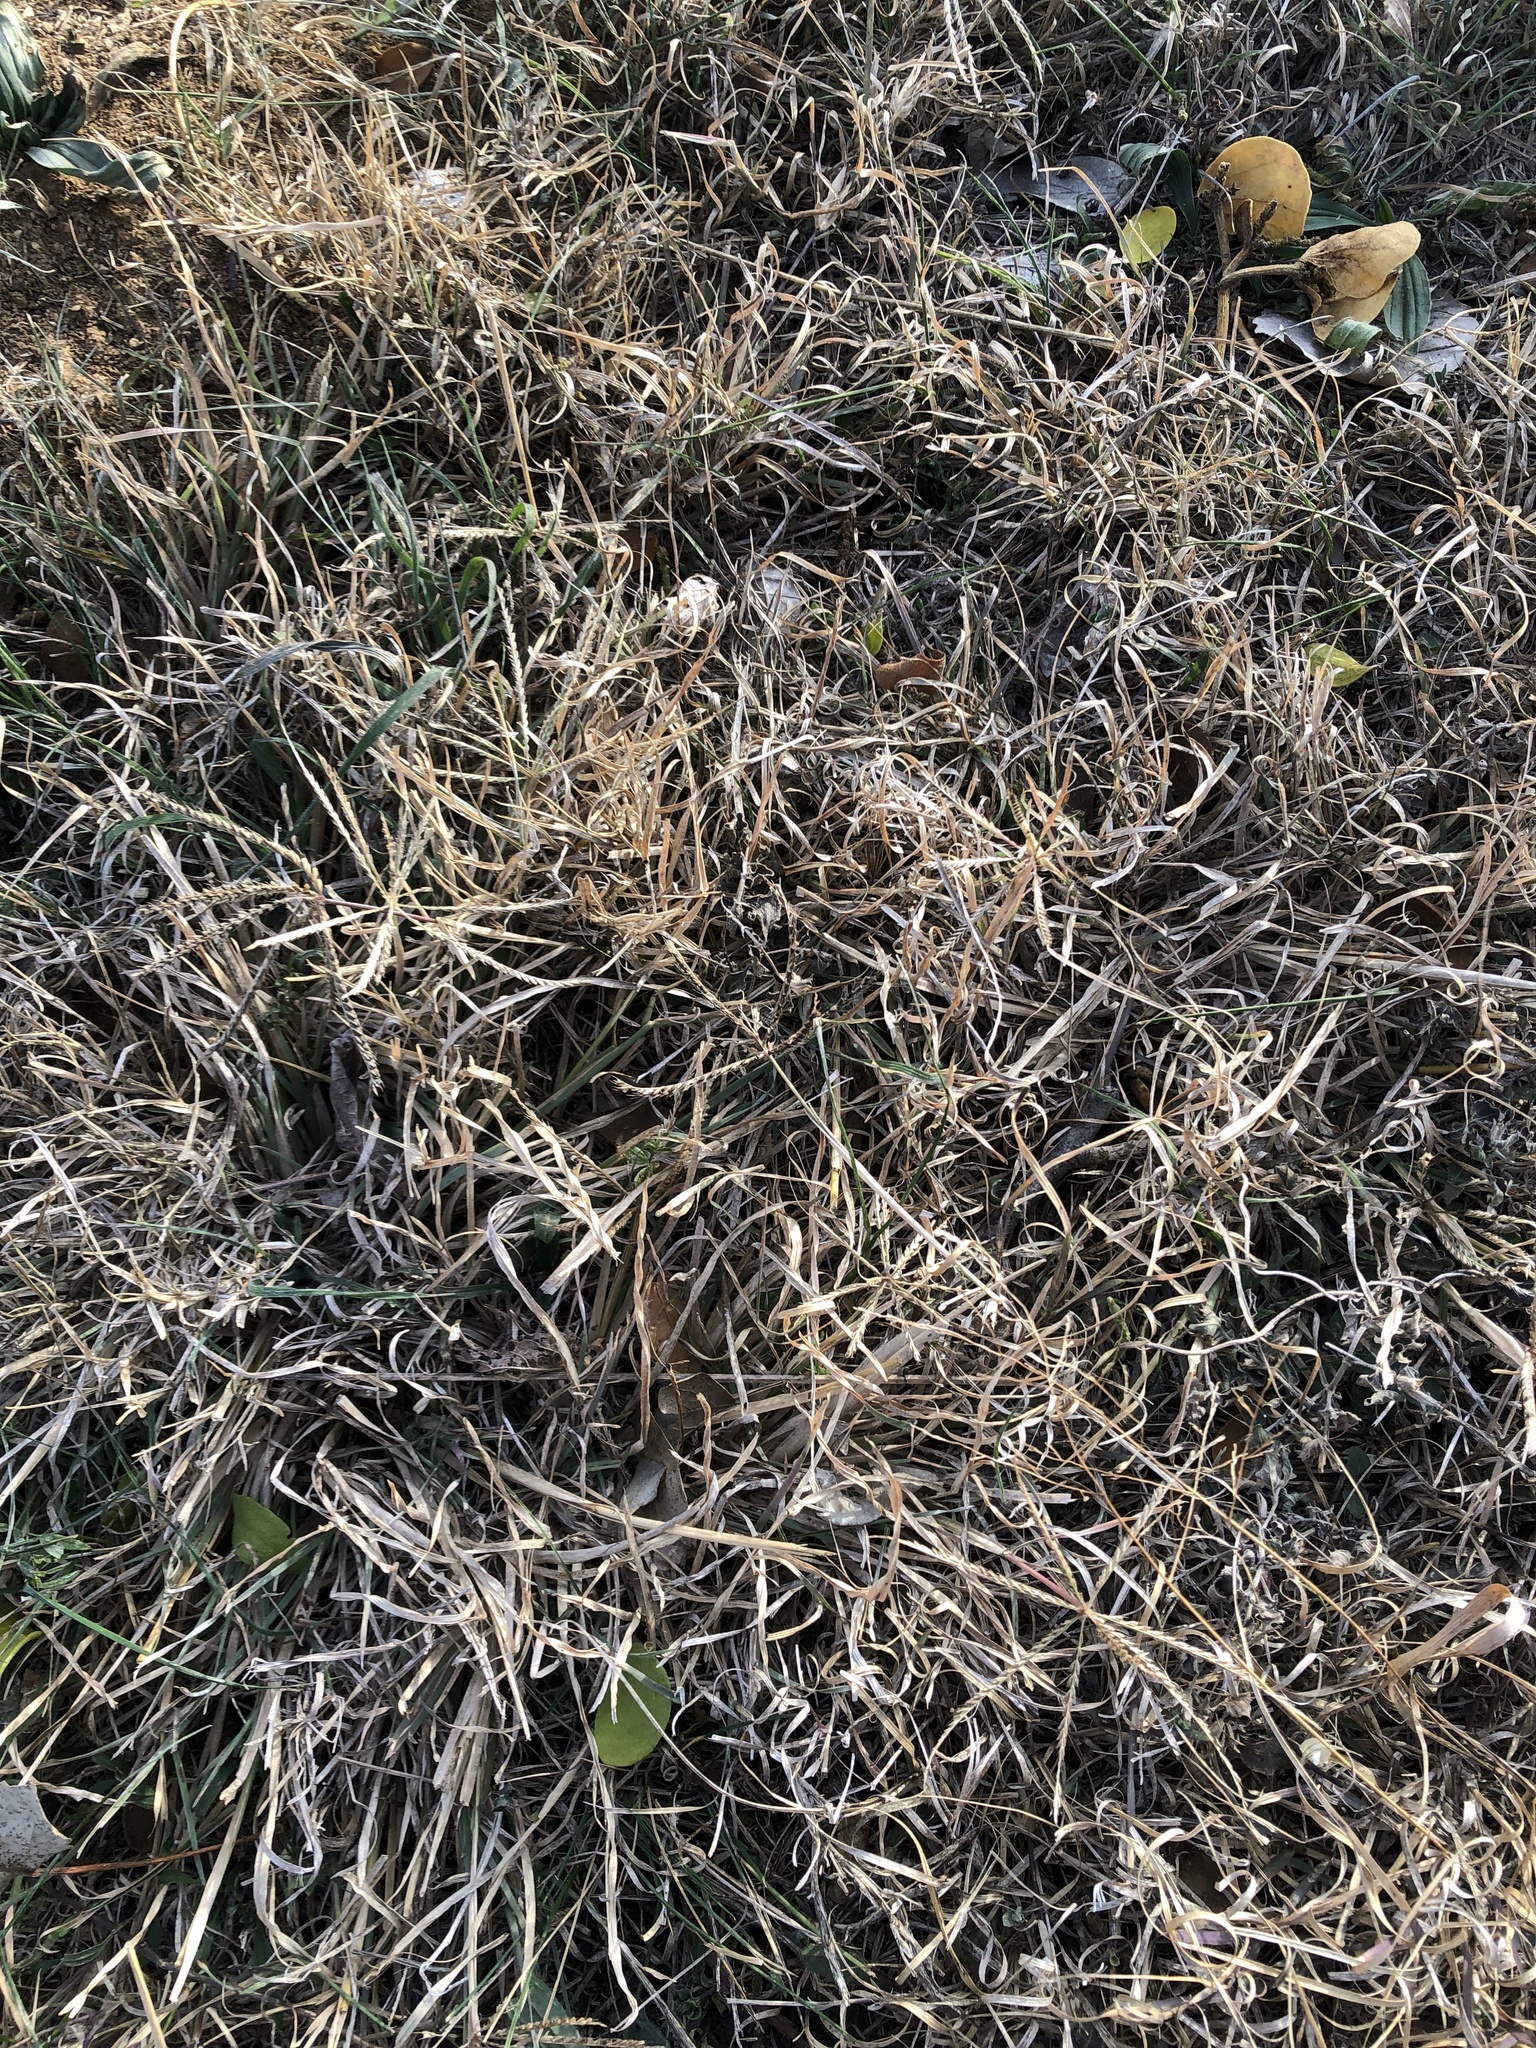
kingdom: Plantae
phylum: Tracheophyta
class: Liliopsida
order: Poales
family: Poaceae
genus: Chloris
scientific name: Chloris verticillata
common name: Tumble windmill grass
